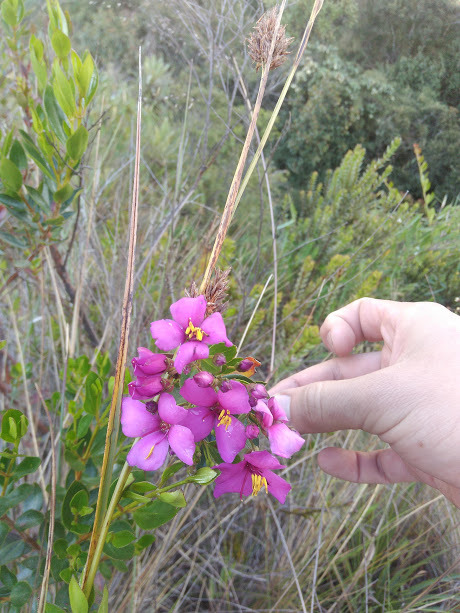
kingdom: Plantae
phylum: Tracheophyta
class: Magnoliopsida
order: Myrtales
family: Melastomataceae
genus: Bucquetia
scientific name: Bucquetia glutinosa
